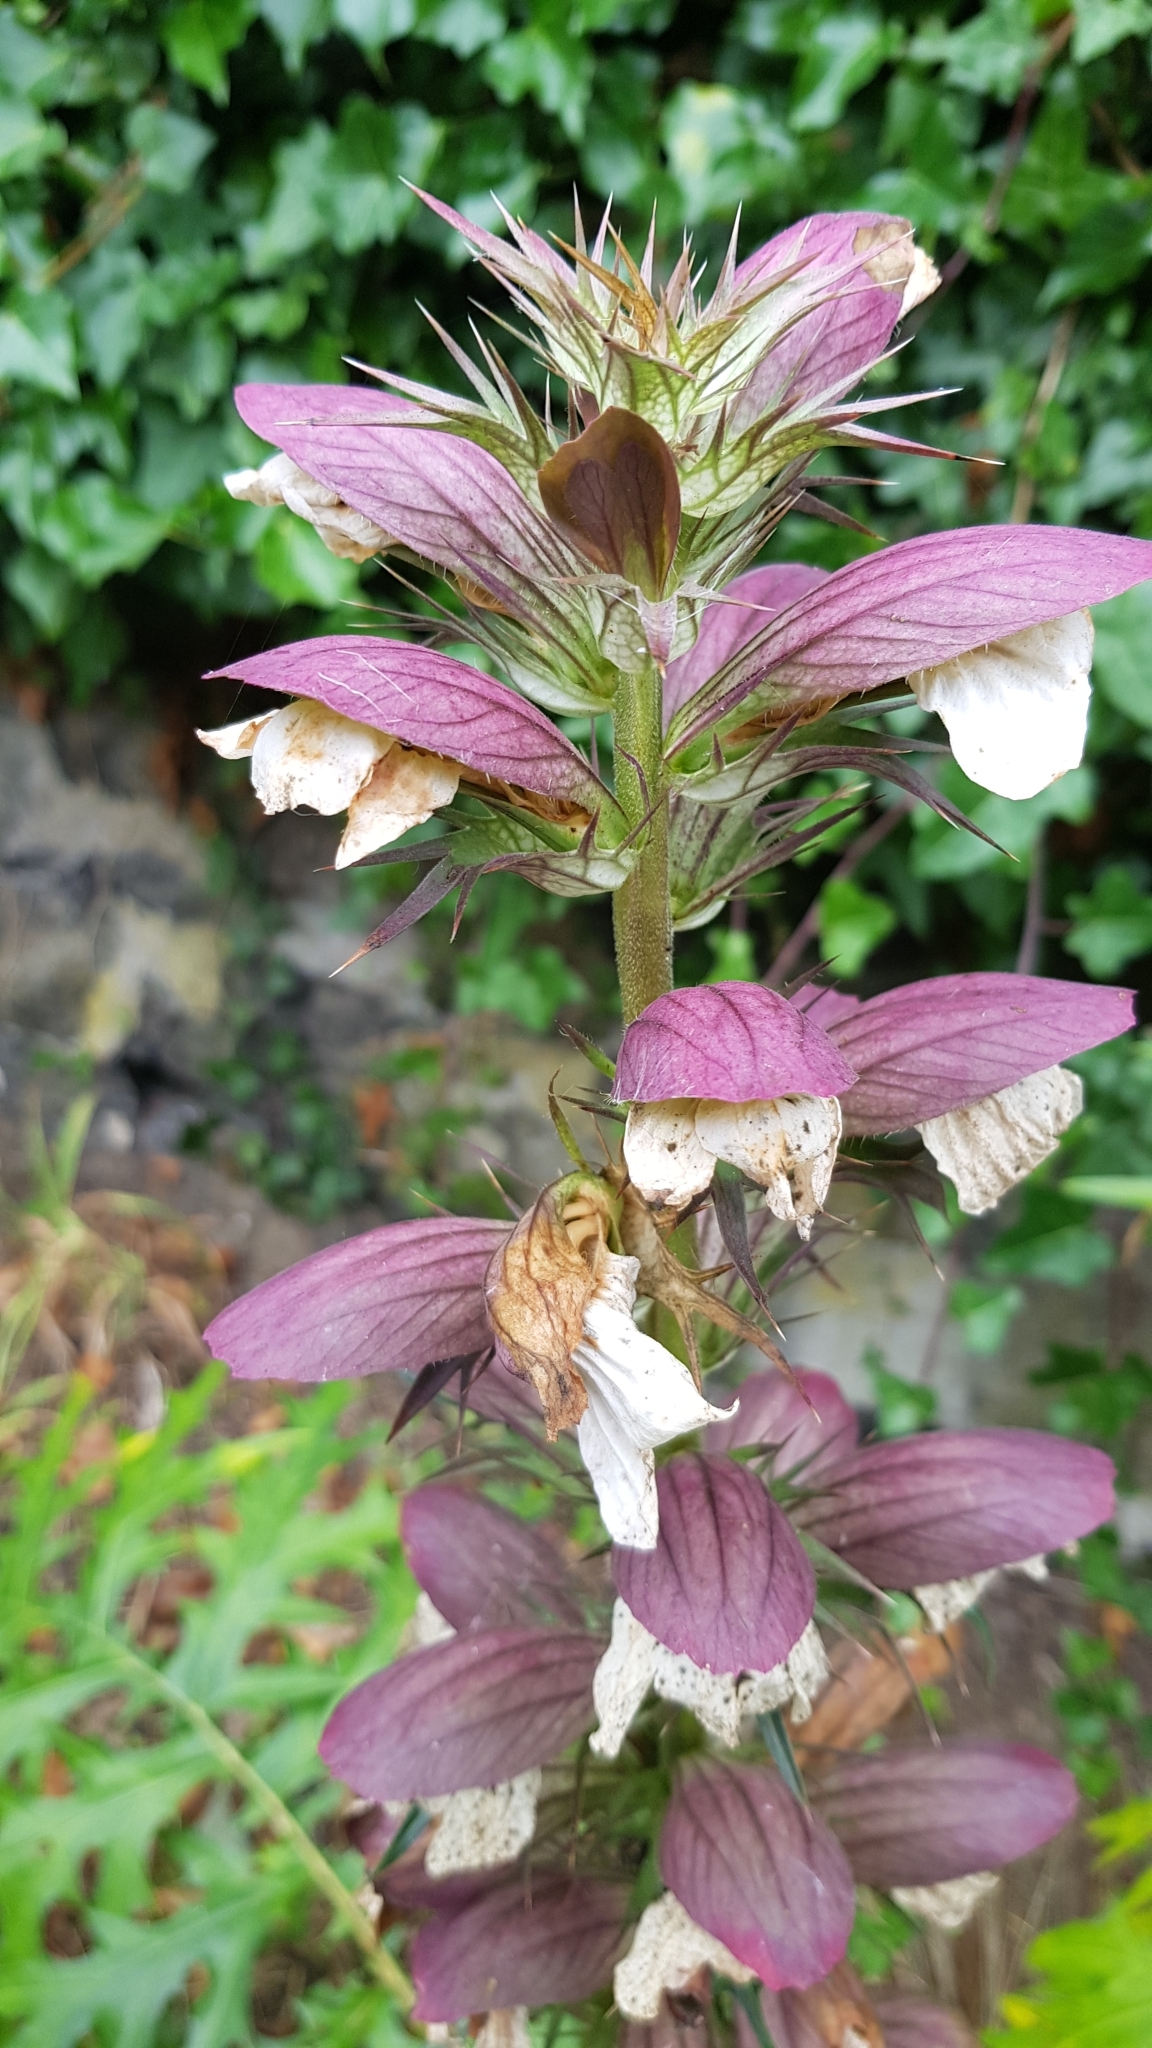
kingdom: Plantae
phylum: Tracheophyta
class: Magnoliopsida
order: Lamiales
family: Acanthaceae
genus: Acanthus
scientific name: Acanthus spinosus
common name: Spiny bear's-breech
